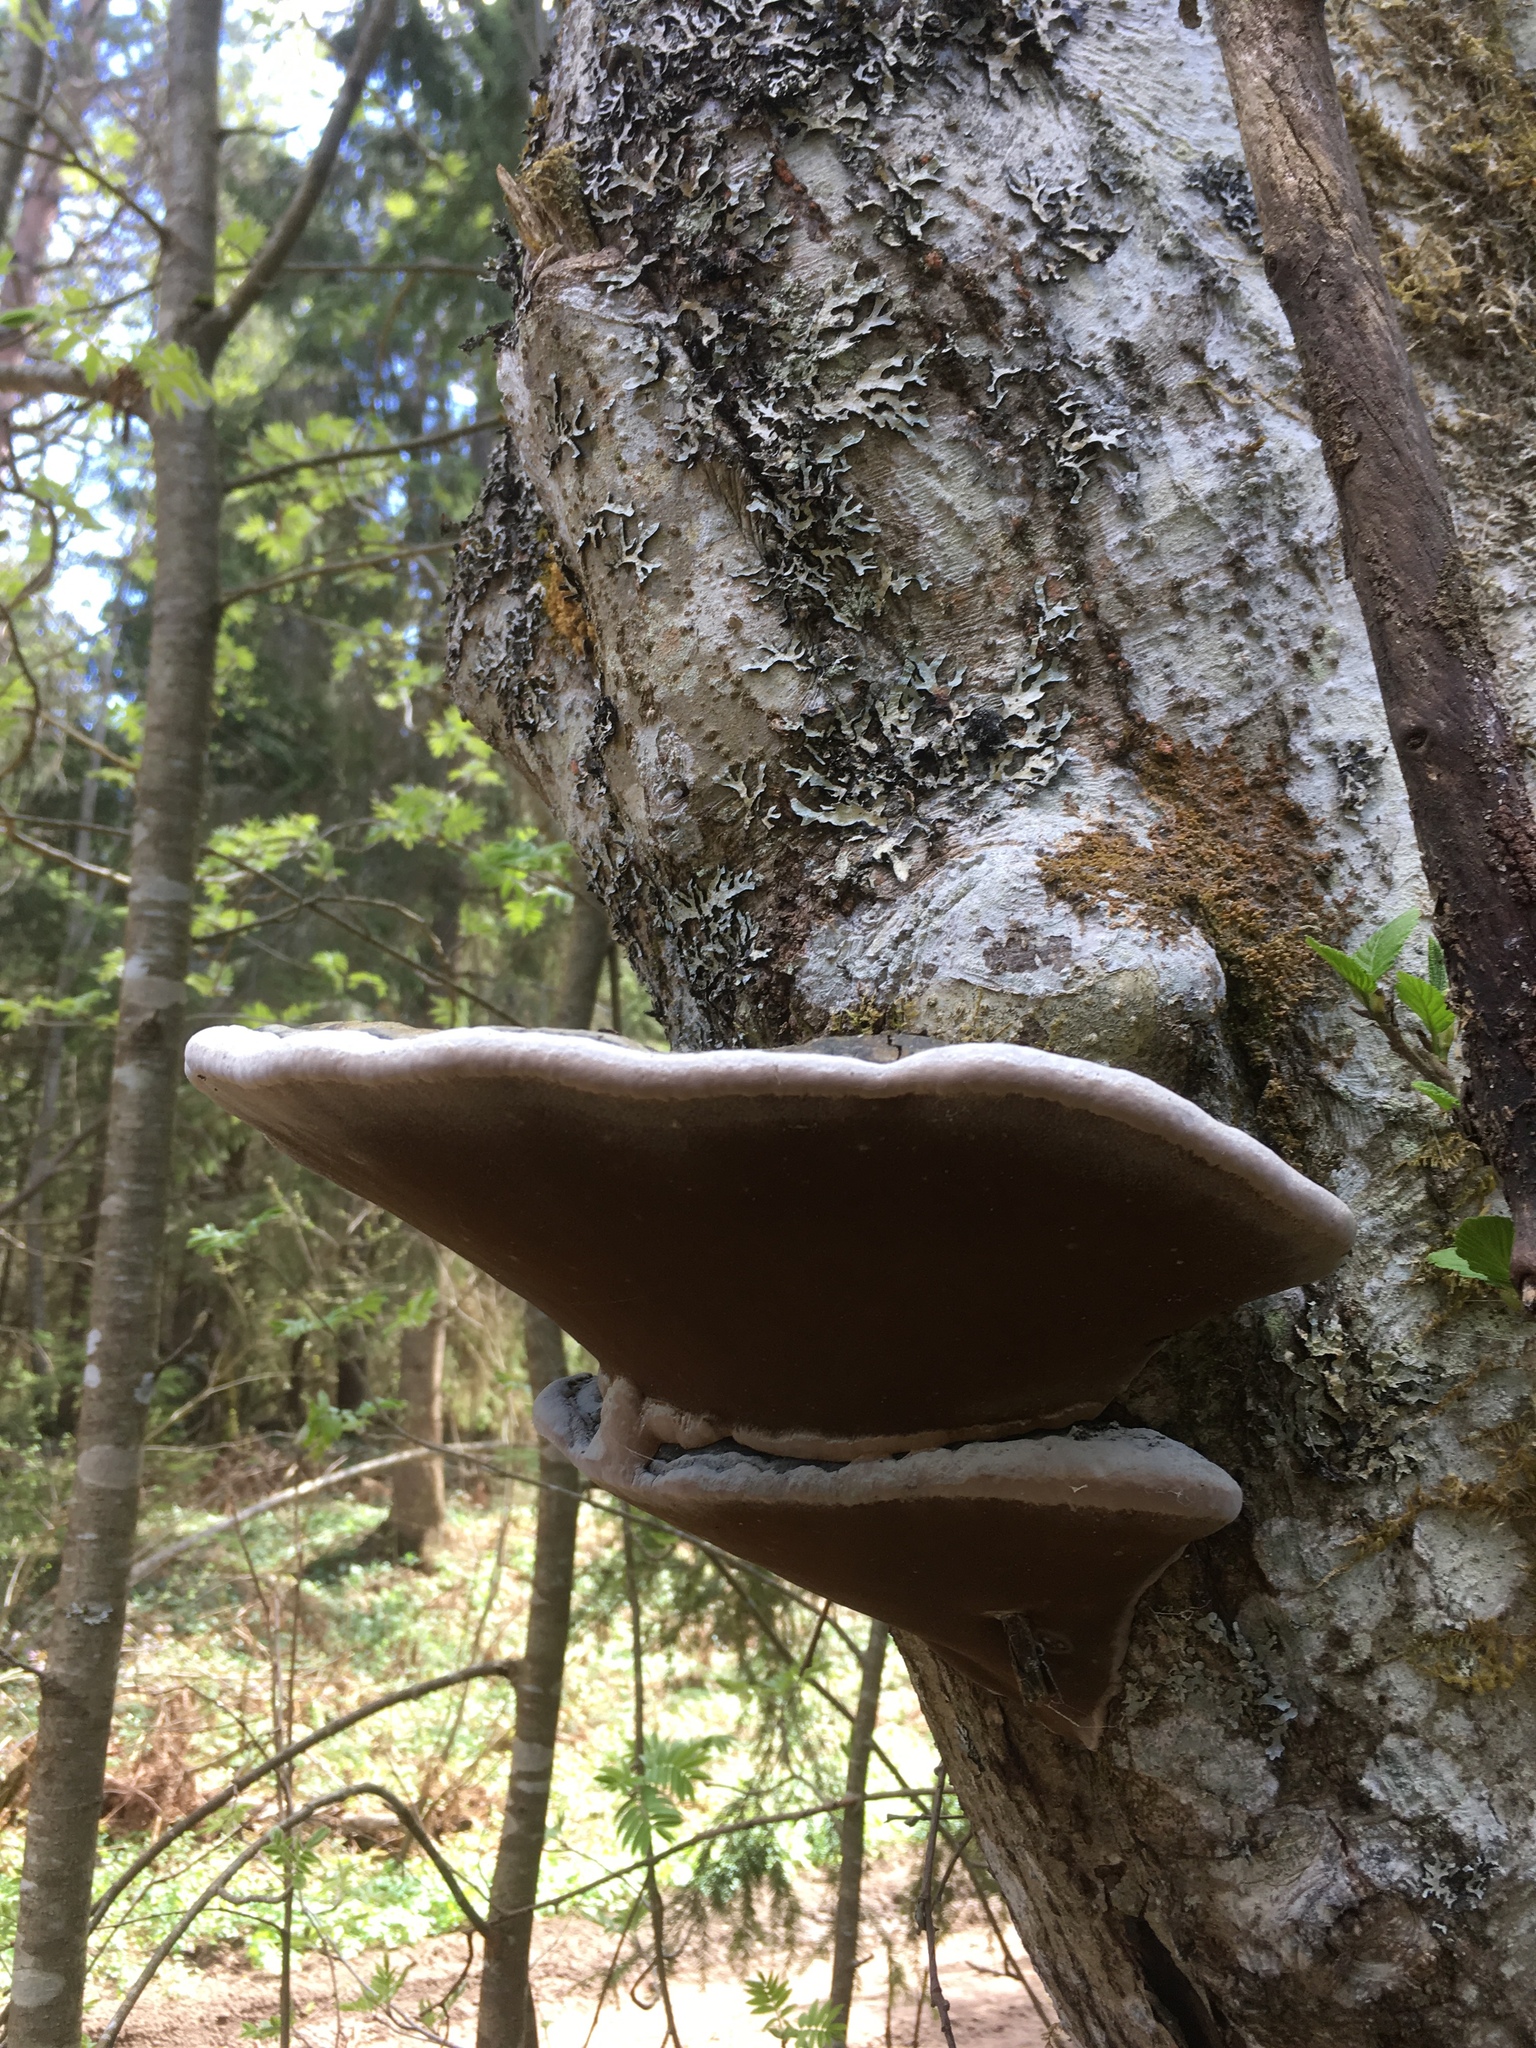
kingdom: Fungi
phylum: Basidiomycota
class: Agaricomycetes
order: Hymenochaetales
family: Hymenochaetaceae
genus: Phellinus
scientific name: Phellinus igniarius
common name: Willow bracket
